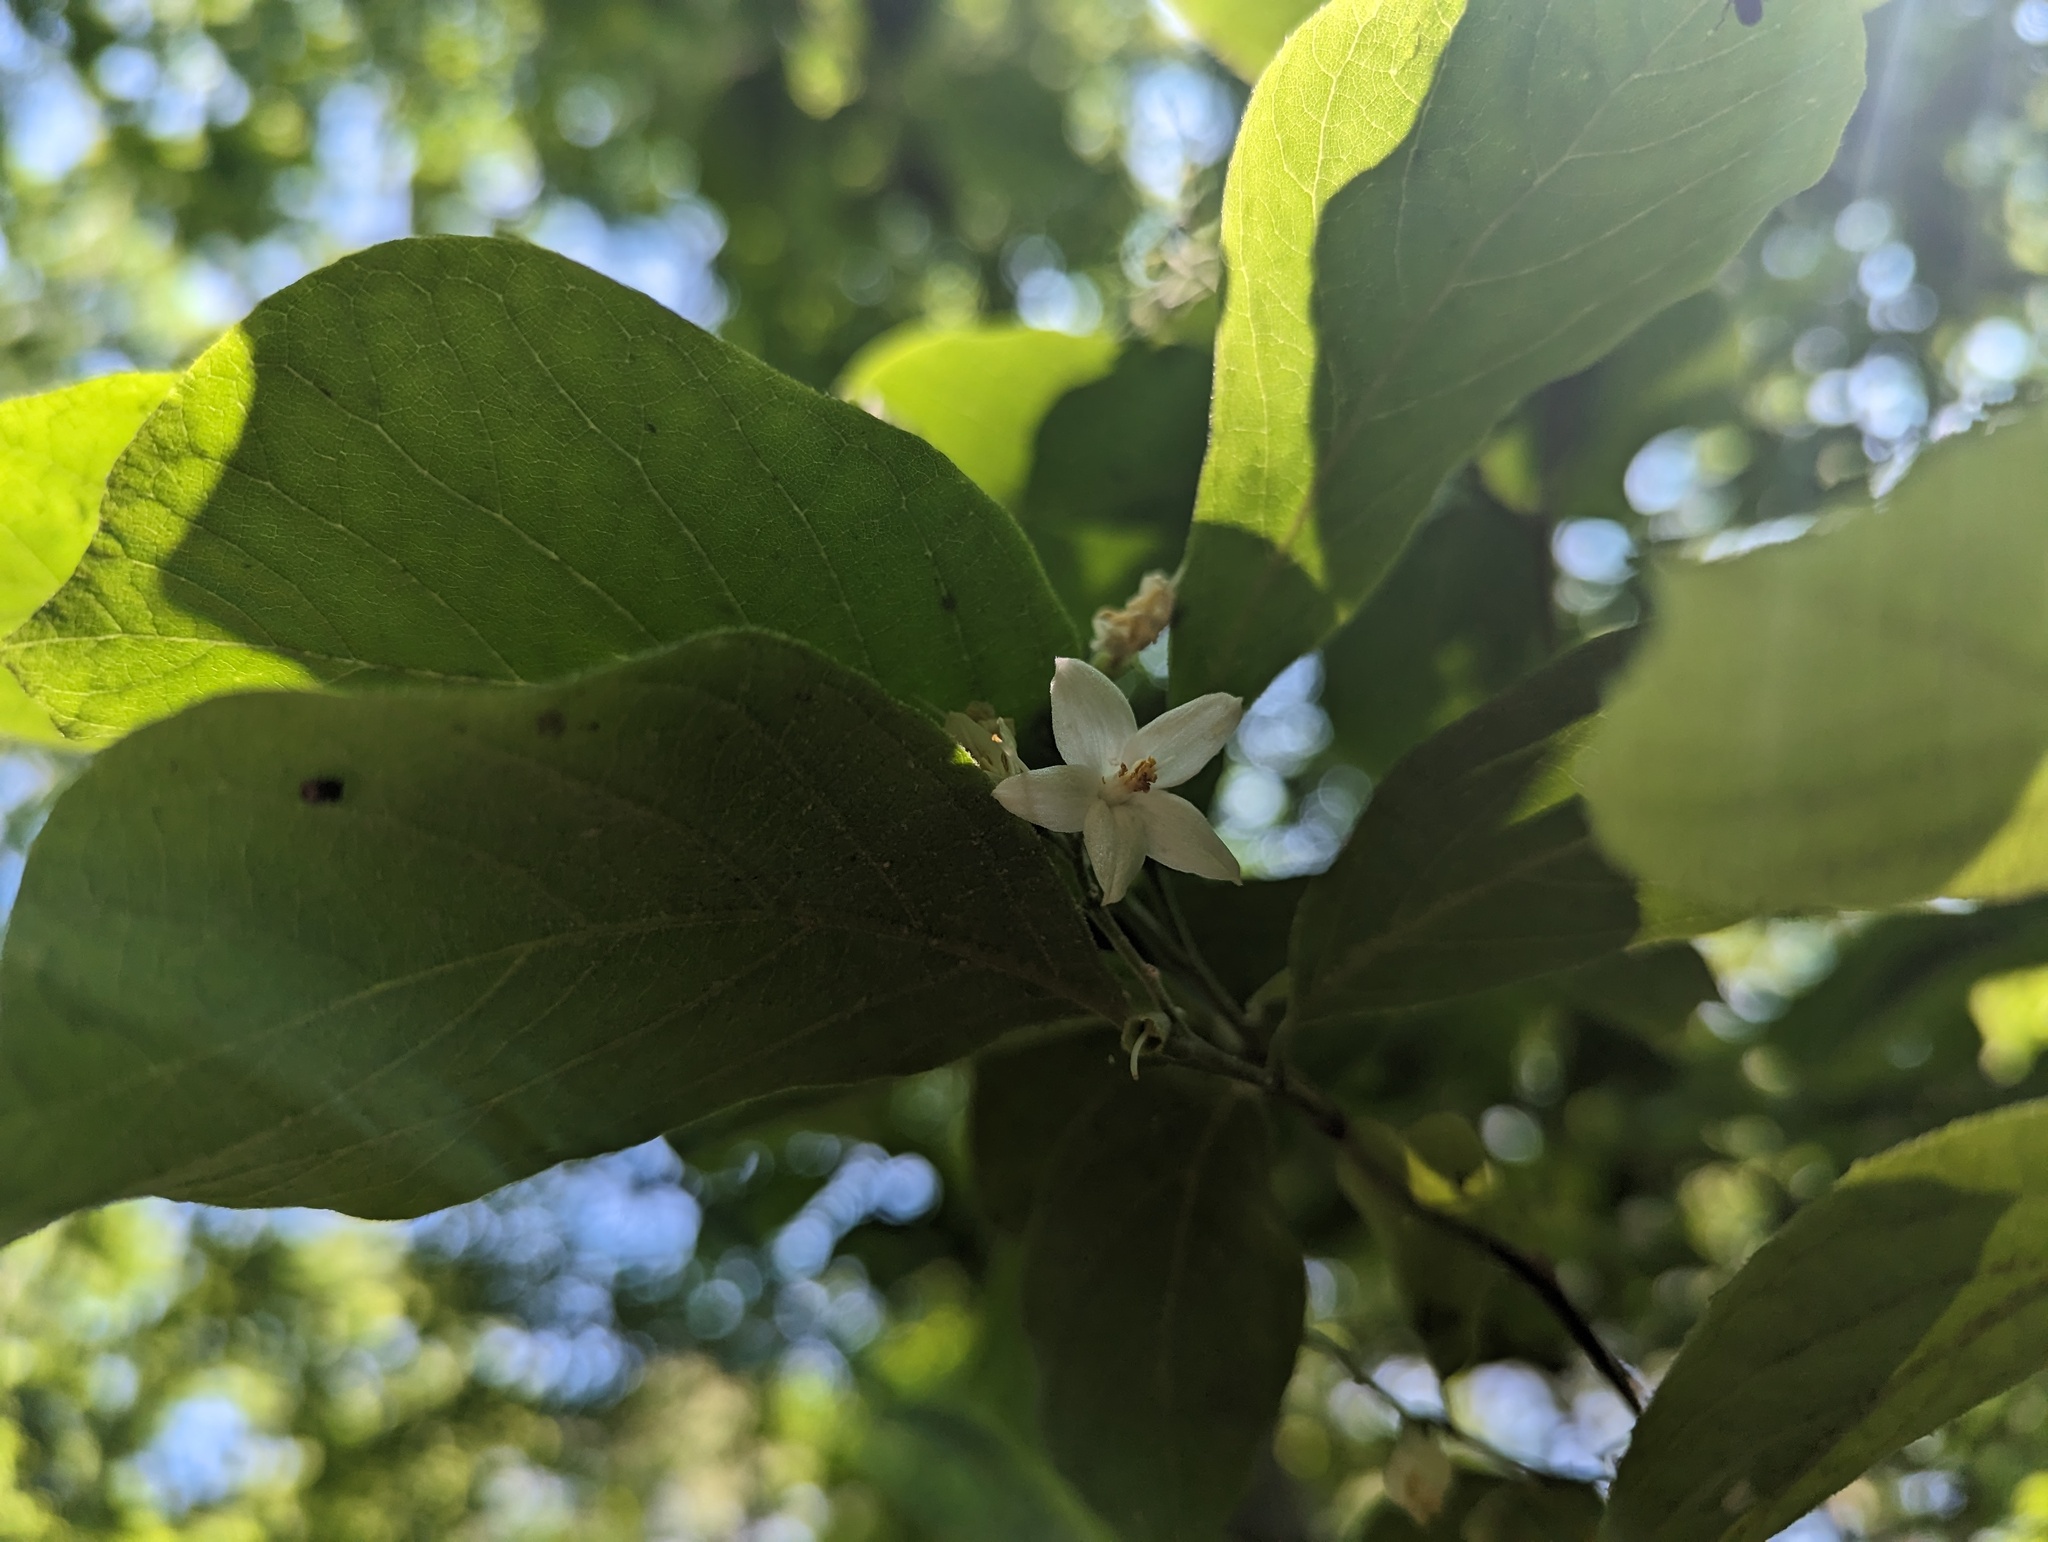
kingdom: Plantae
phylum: Tracheophyta
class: Magnoliopsida
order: Ericales
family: Styracaceae
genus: Styrax
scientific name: Styrax grandifolius
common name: Big-leaf snowbell
